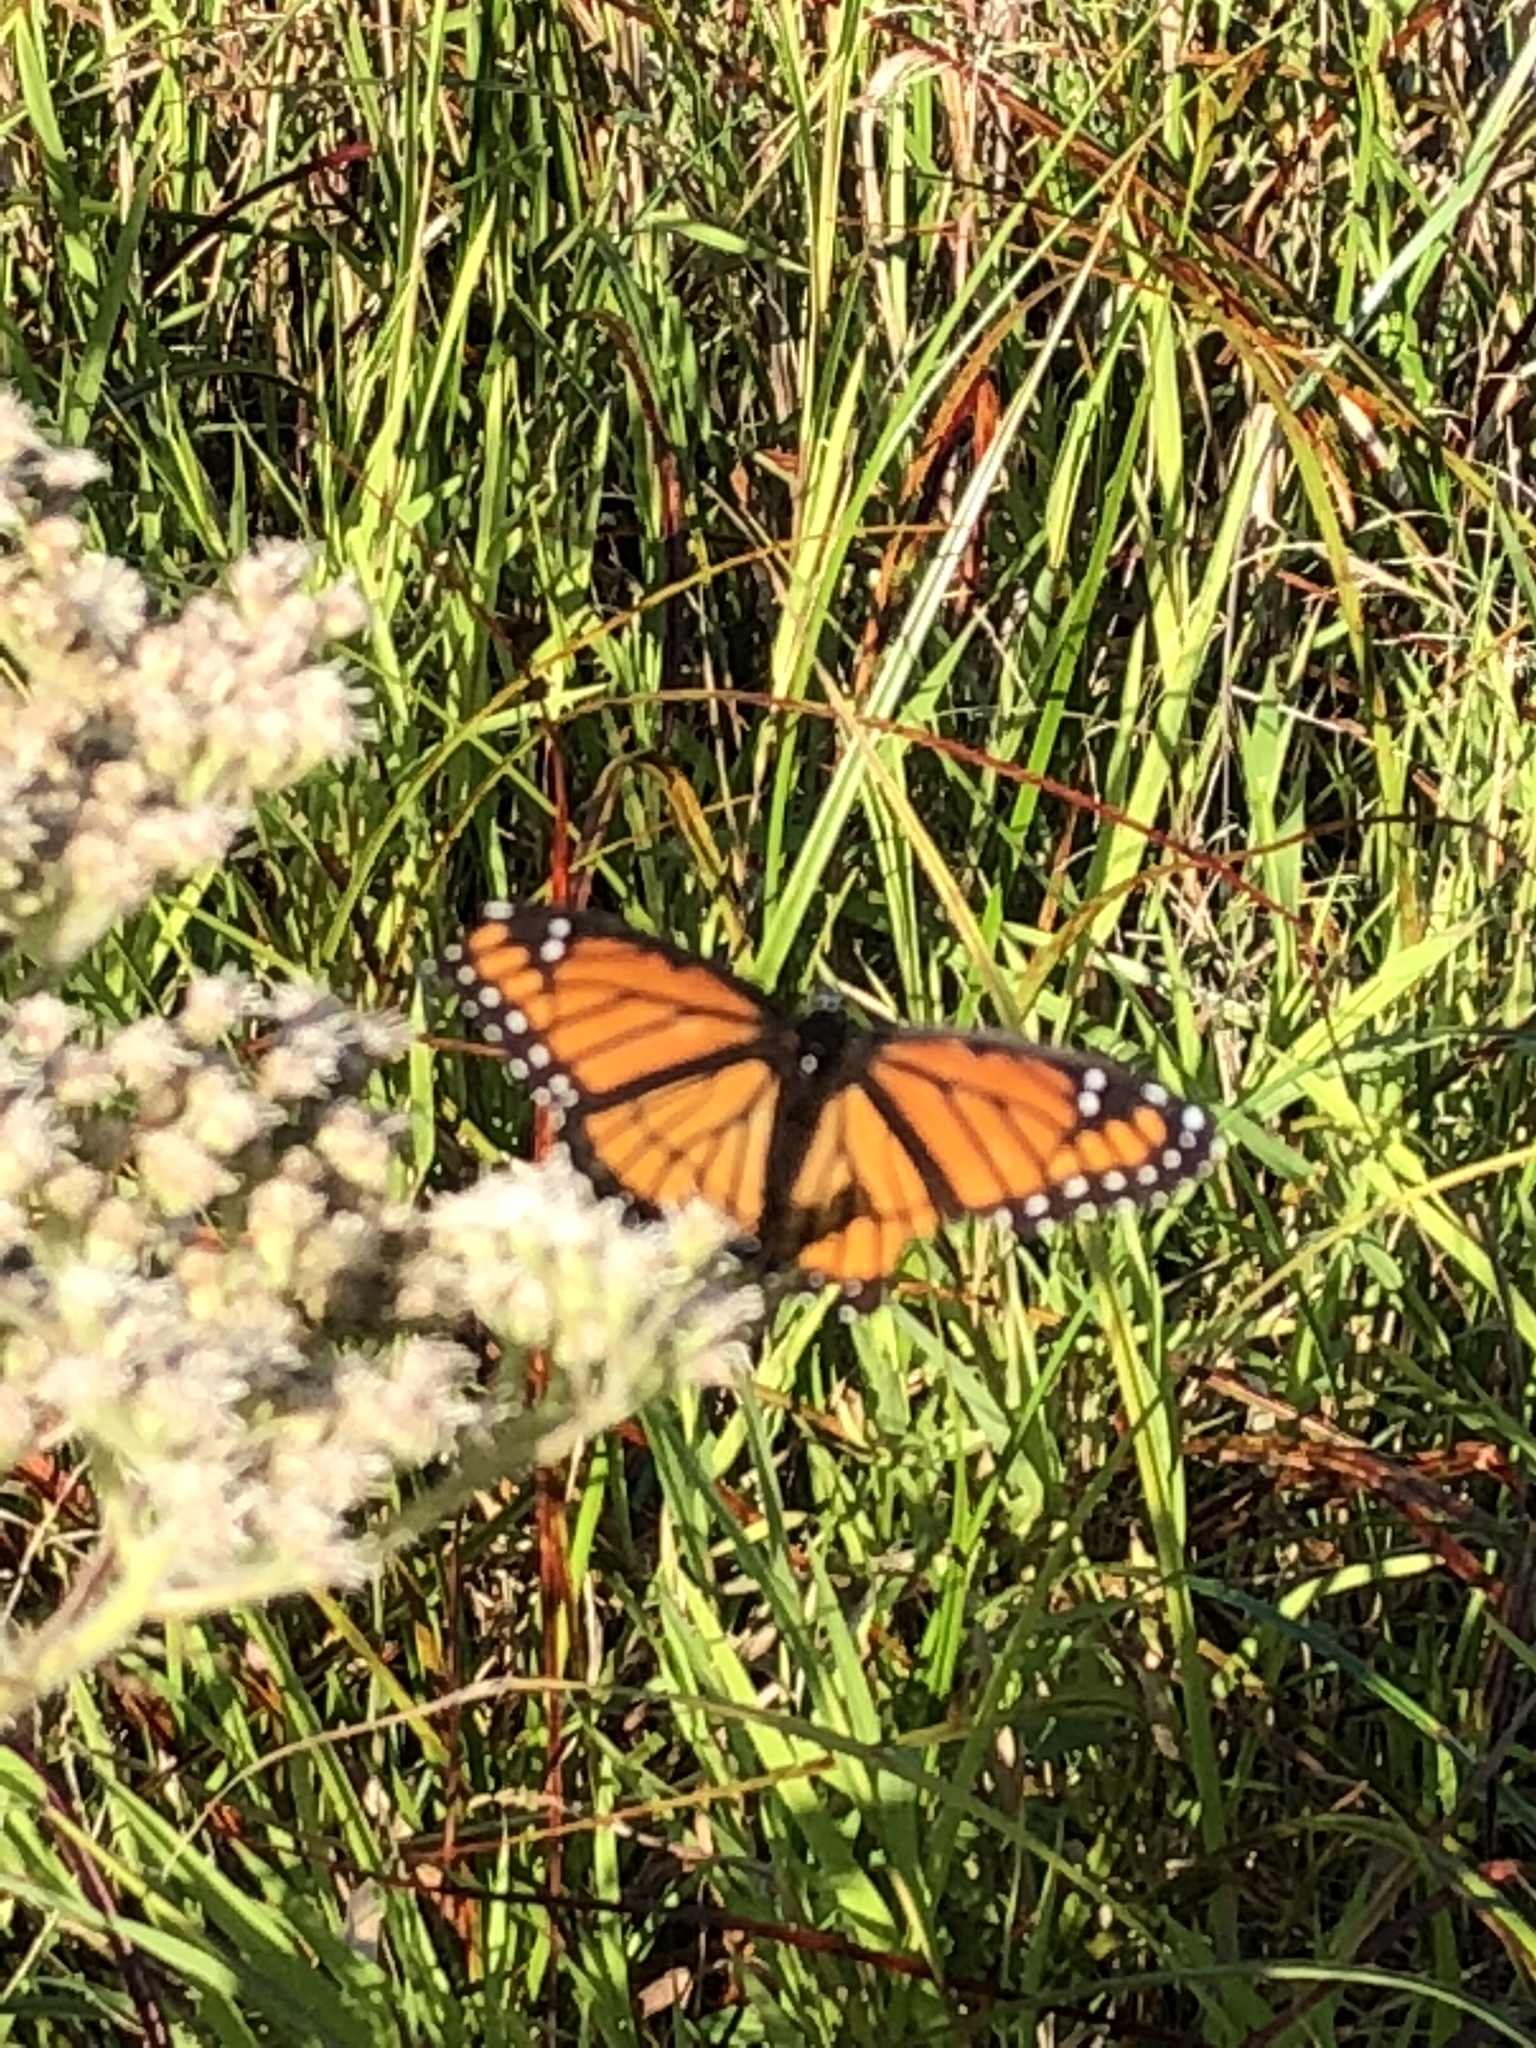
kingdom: Animalia
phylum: Arthropoda
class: Insecta
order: Lepidoptera
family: Nymphalidae
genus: Limenitis
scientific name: Limenitis archippus
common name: Viceroy
